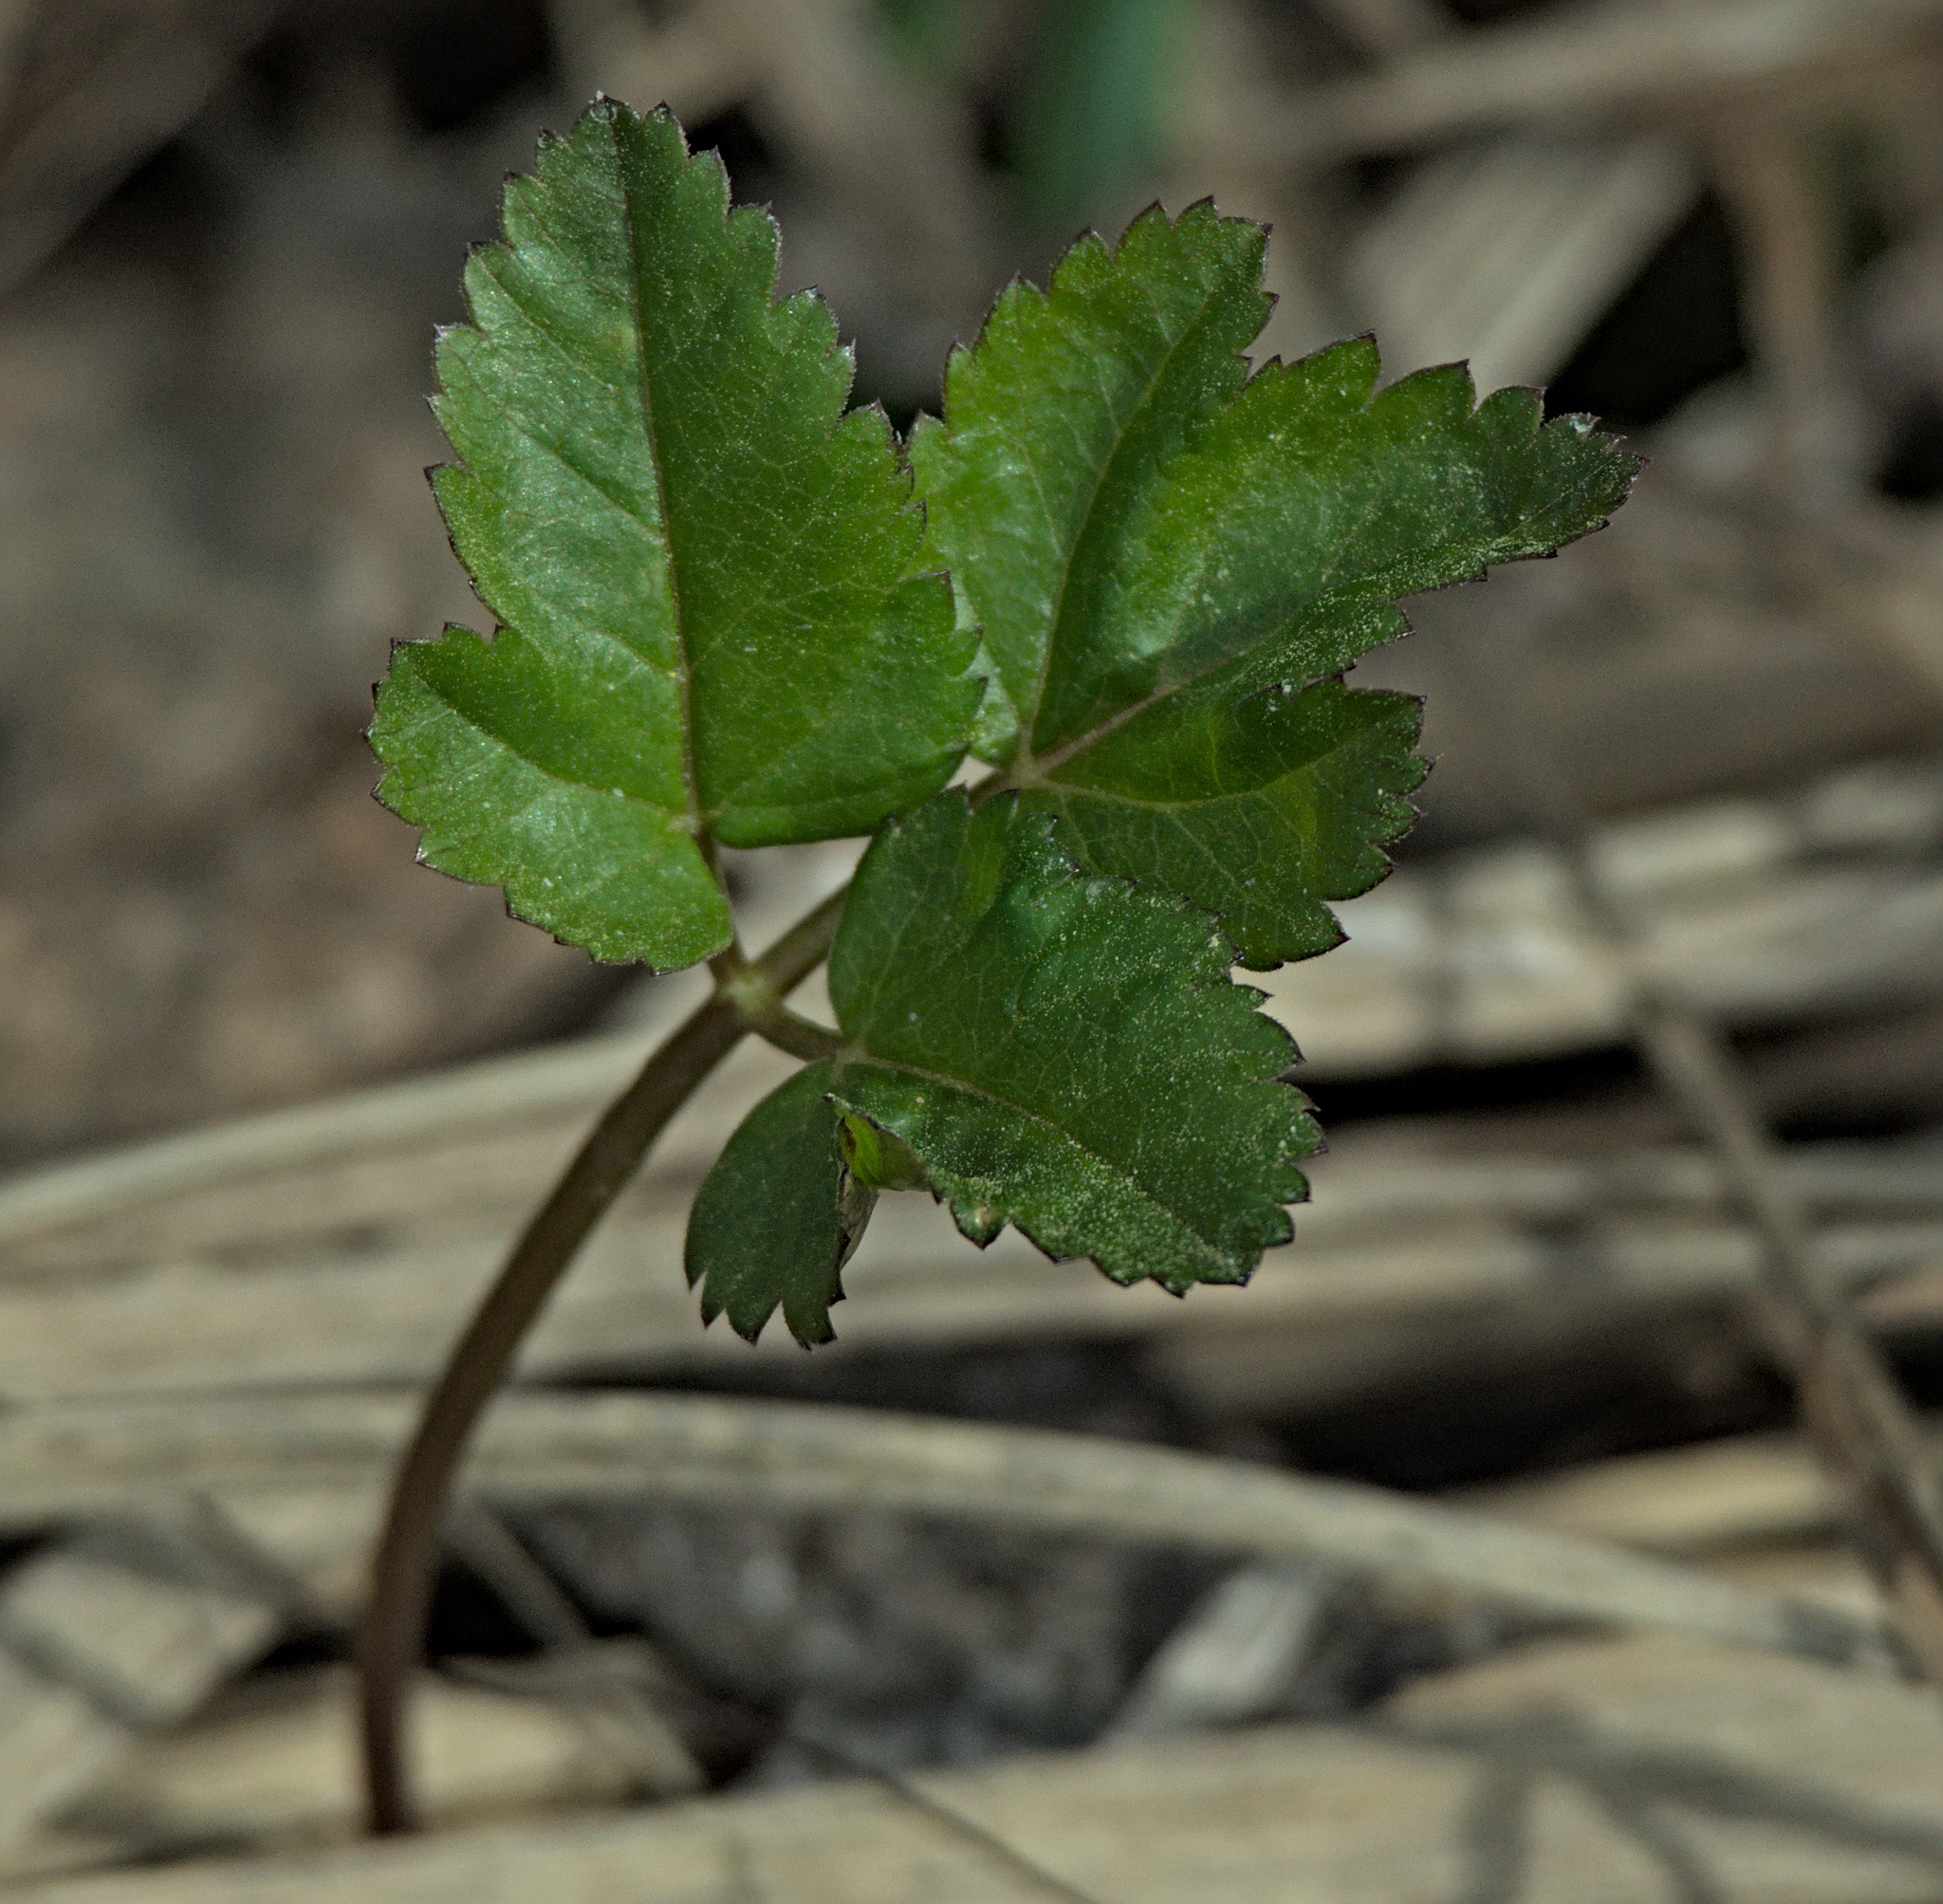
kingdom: Plantae
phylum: Tracheophyta
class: Magnoliopsida
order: Apiales
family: Apiaceae
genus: Aegopodium
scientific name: Aegopodium podagraria
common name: Ground-elder
